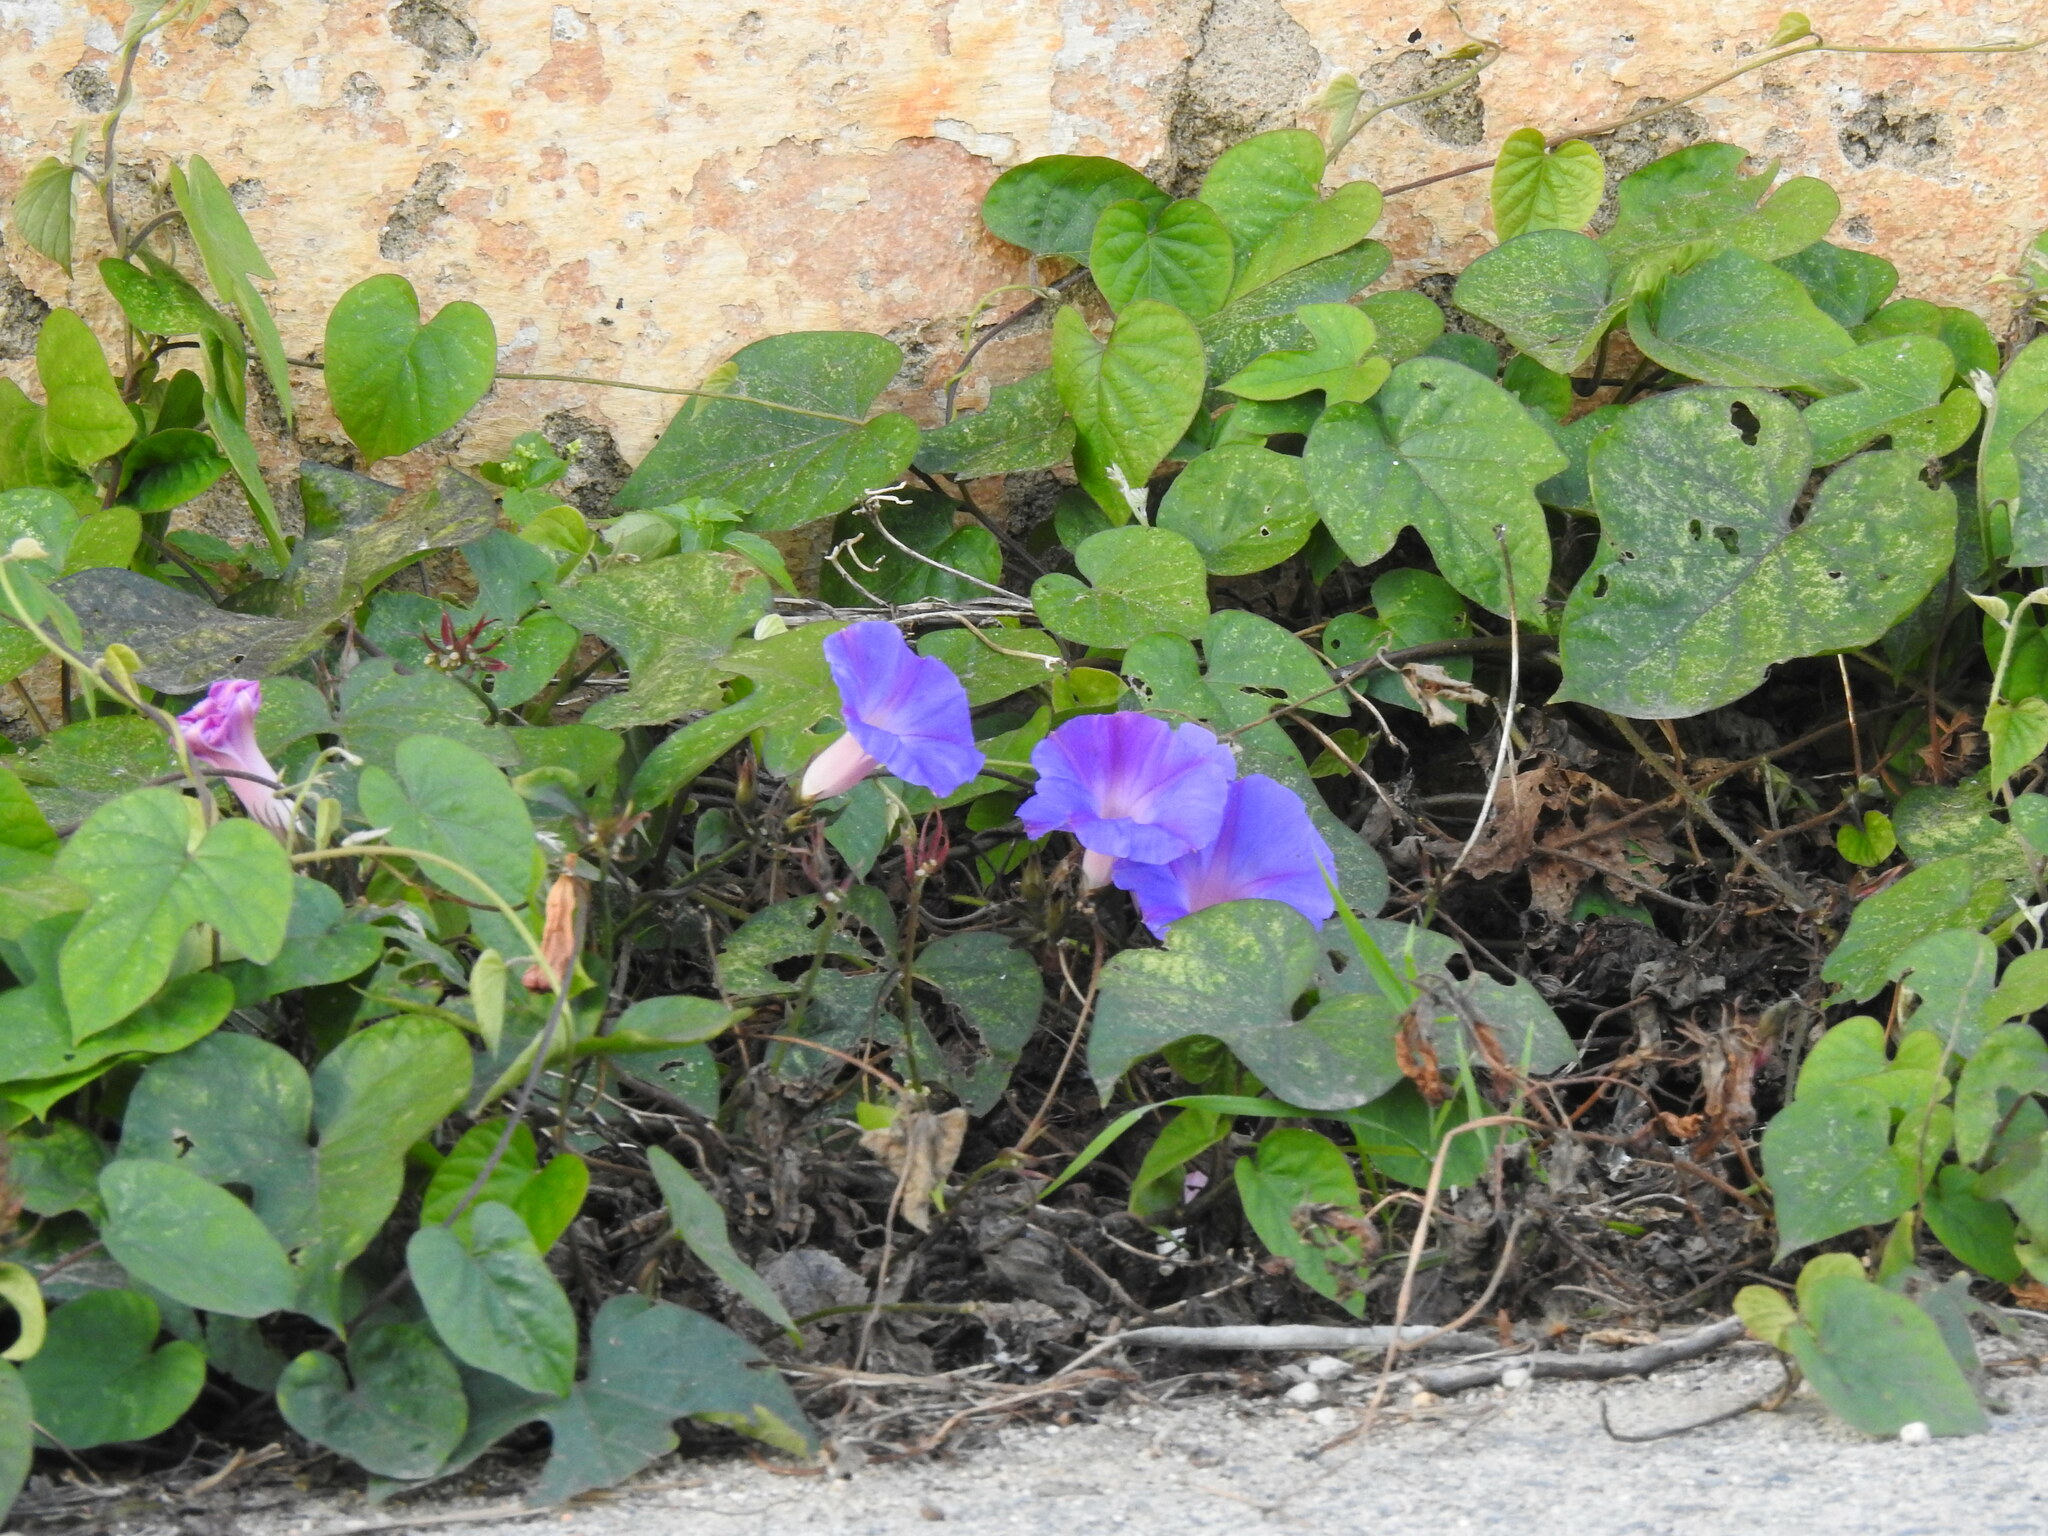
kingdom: Plantae
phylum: Tracheophyta
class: Magnoliopsida
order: Solanales
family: Convolvulaceae
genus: Ipomoea
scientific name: Ipomoea indica
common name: Blue dawnflower
